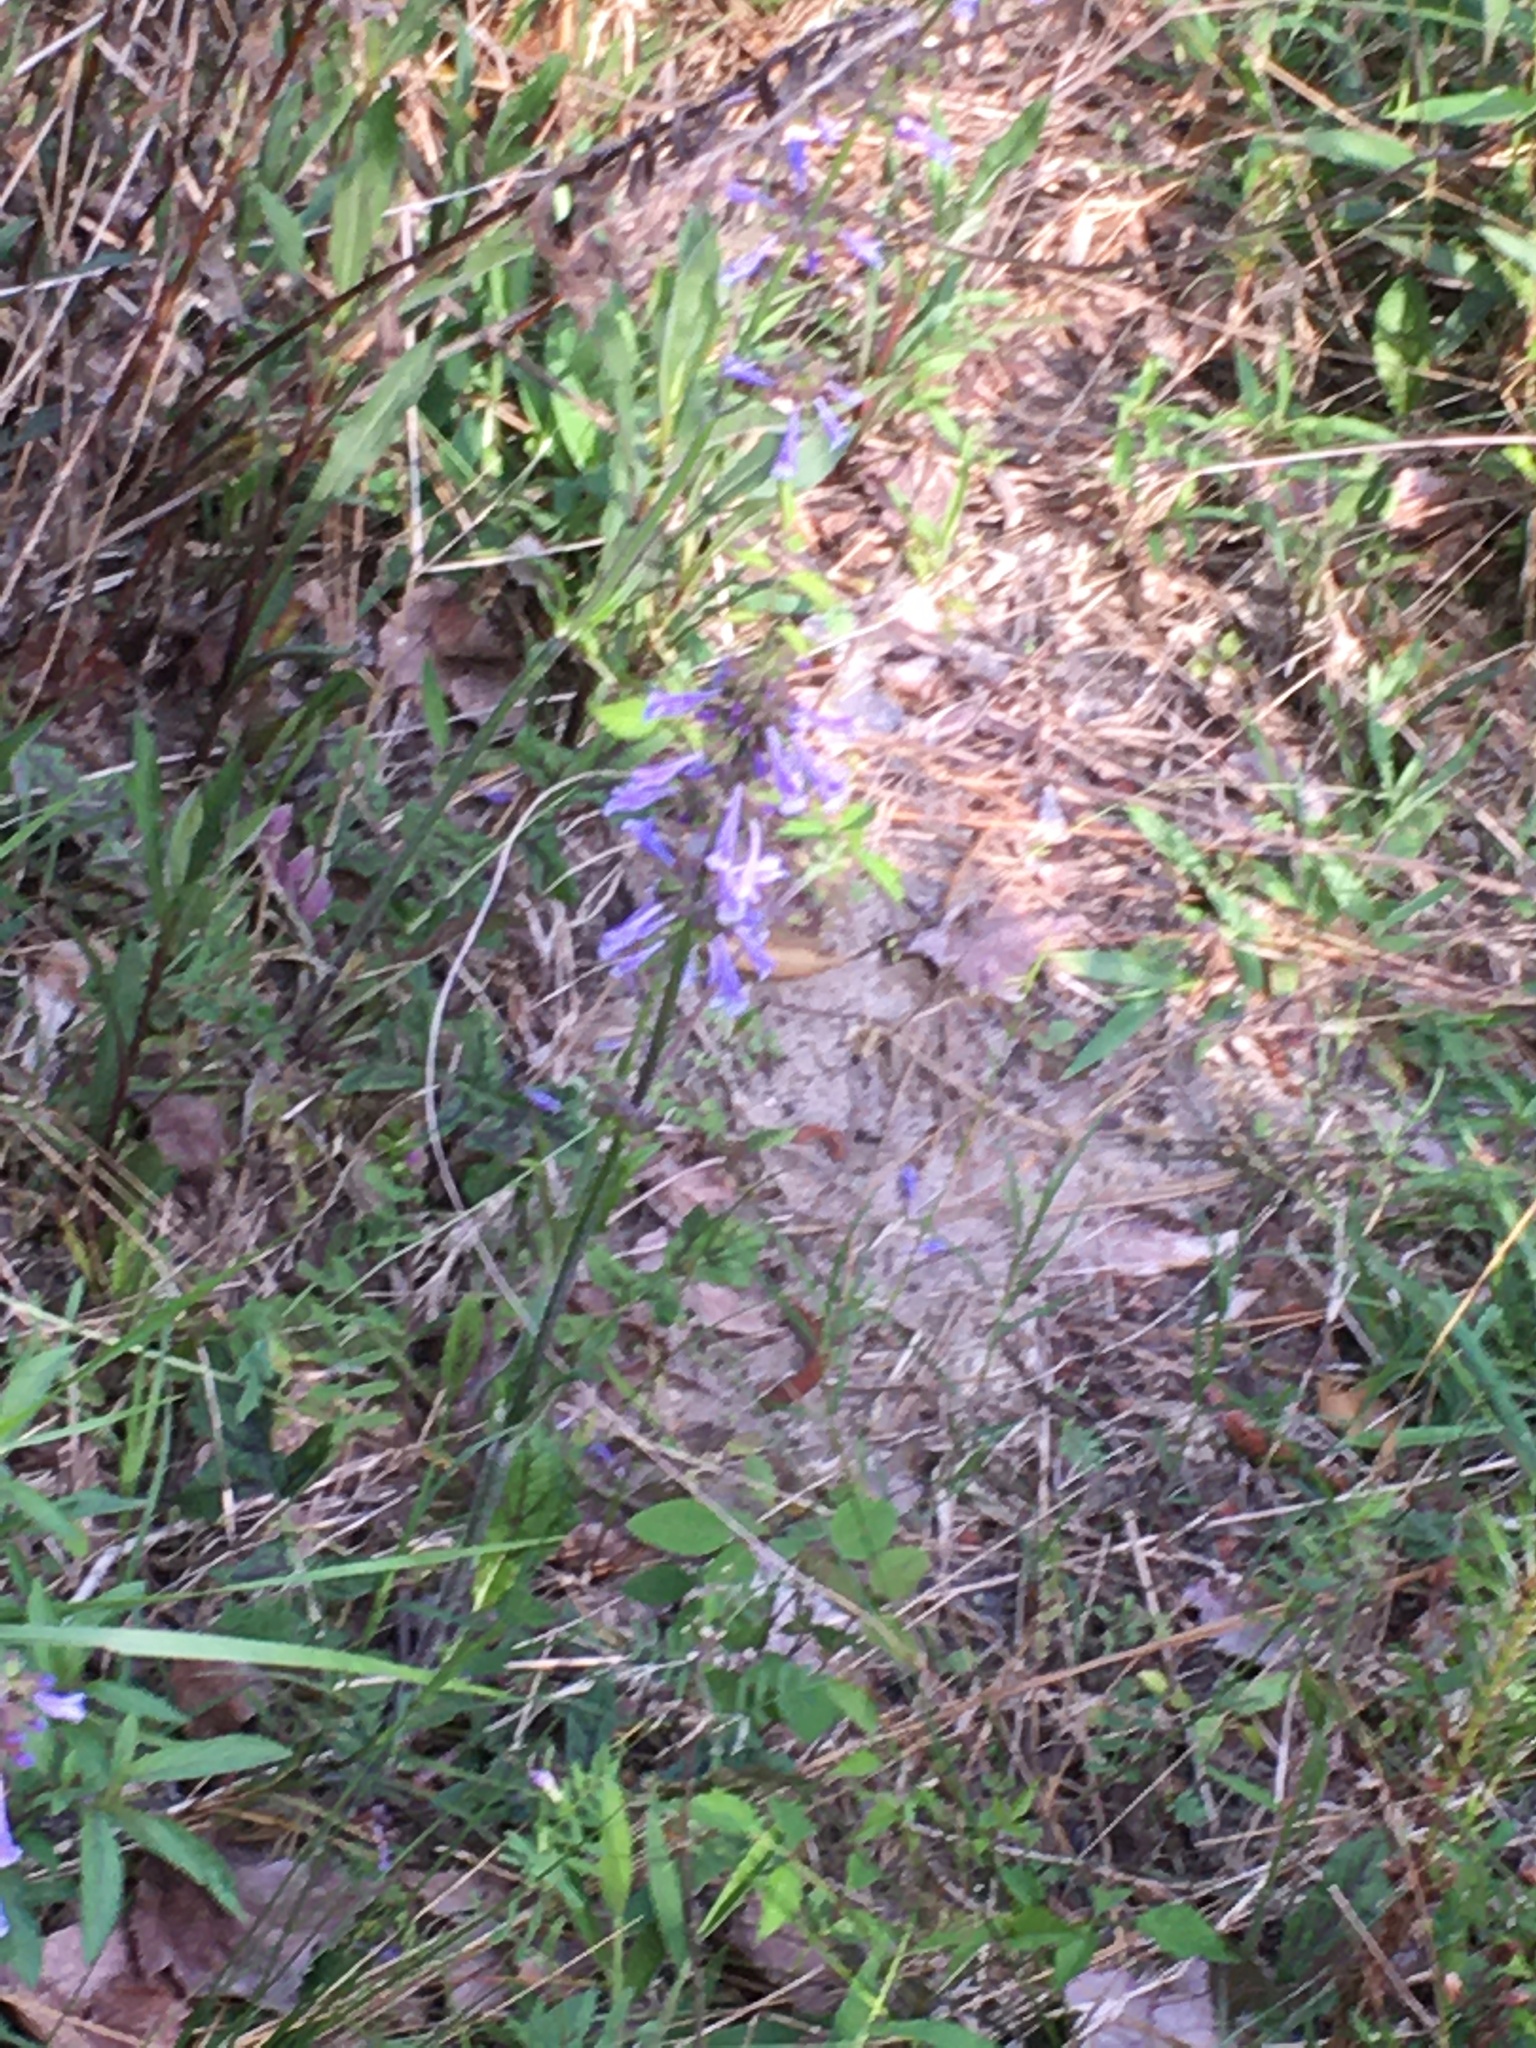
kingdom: Plantae
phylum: Tracheophyta
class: Magnoliopsida
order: Lamiales
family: Lamiaceae
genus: Salvia
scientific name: Salvia lyrata
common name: Cancerweed
